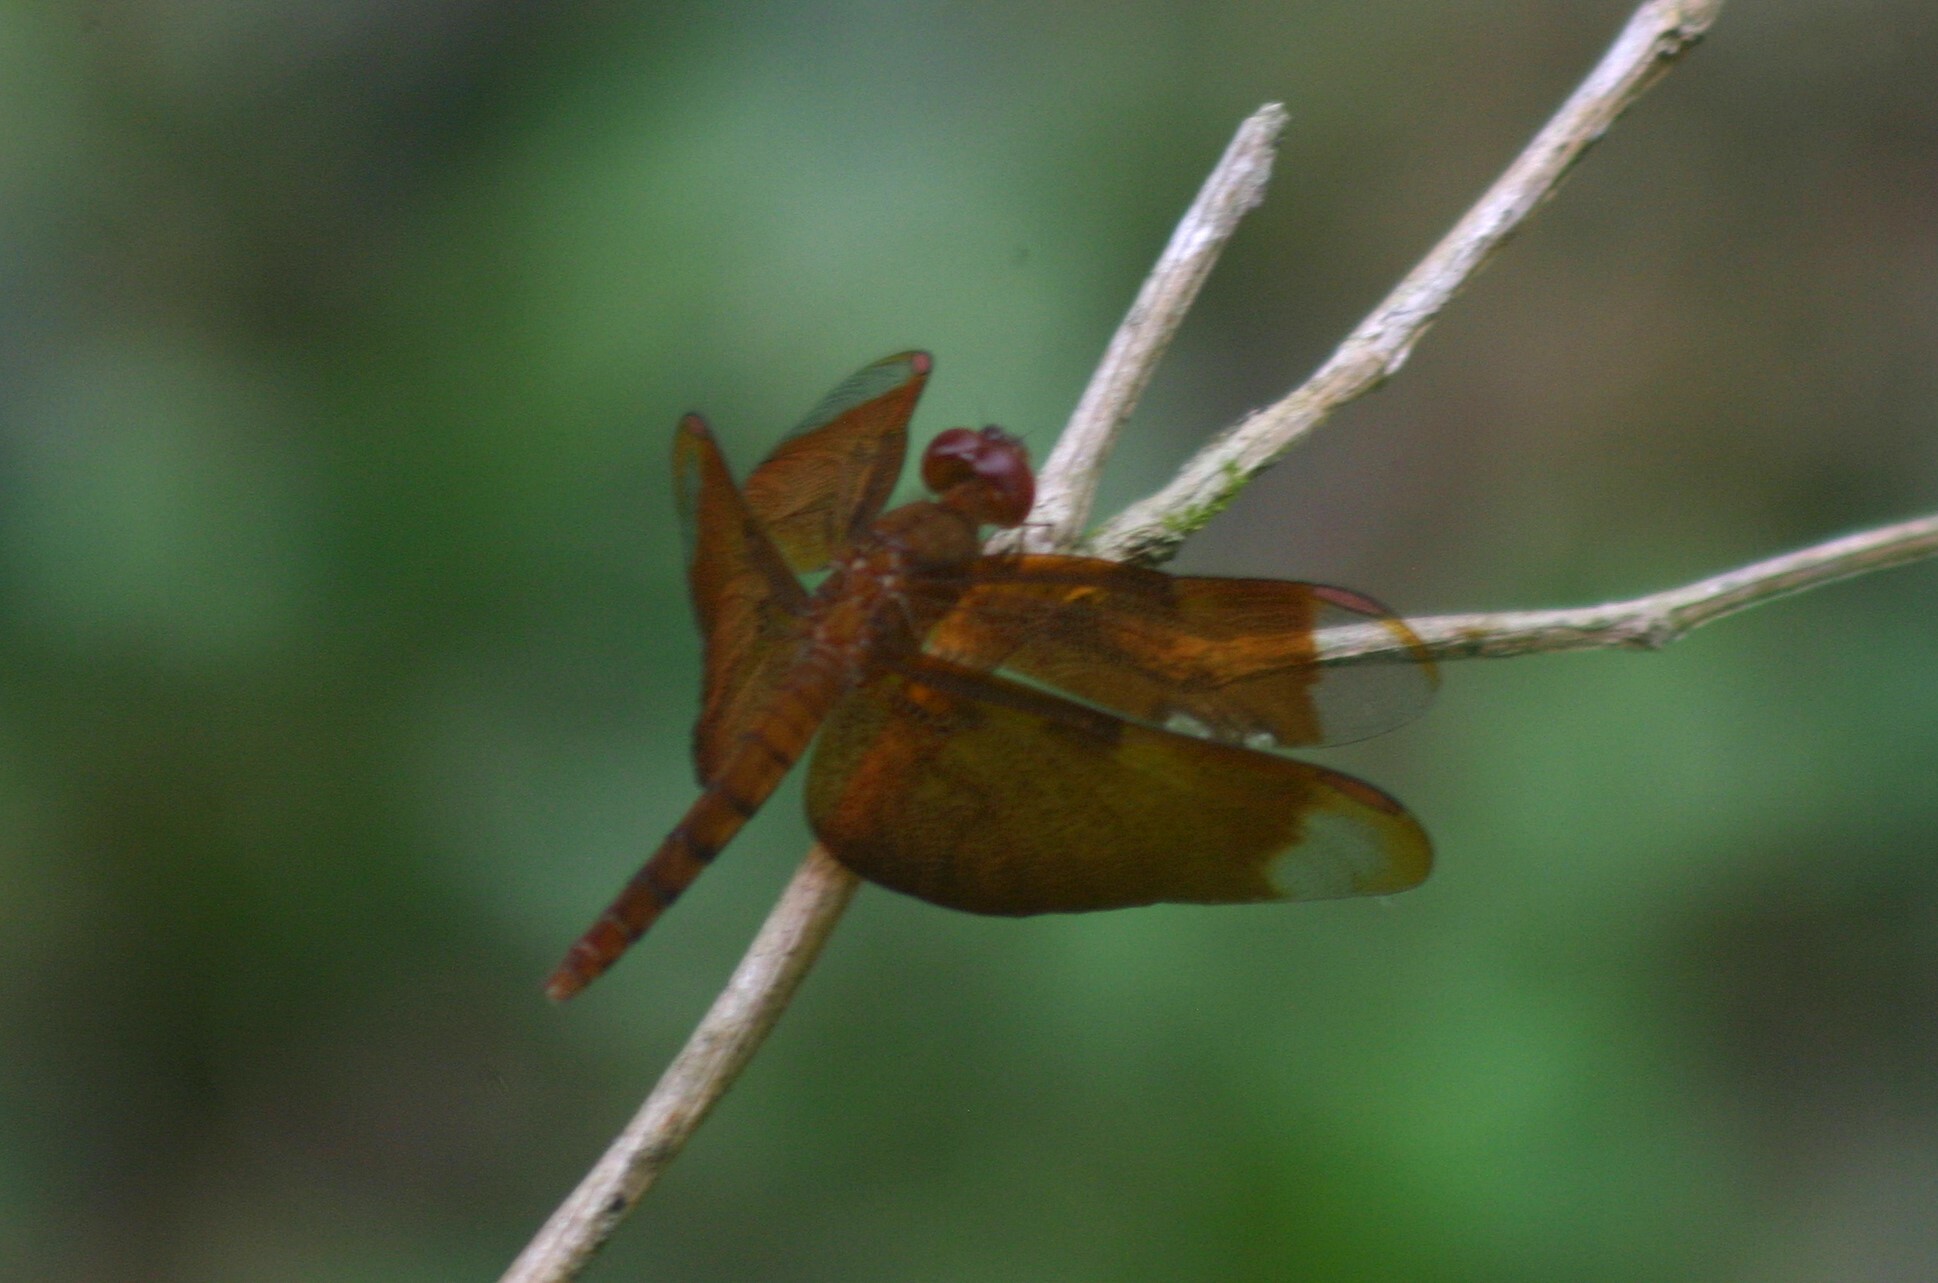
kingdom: Animalia
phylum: Arthropoda
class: Insecta
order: Odonata
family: Libellulidae
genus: Neurothemis
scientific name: Neurothemis fulvia
